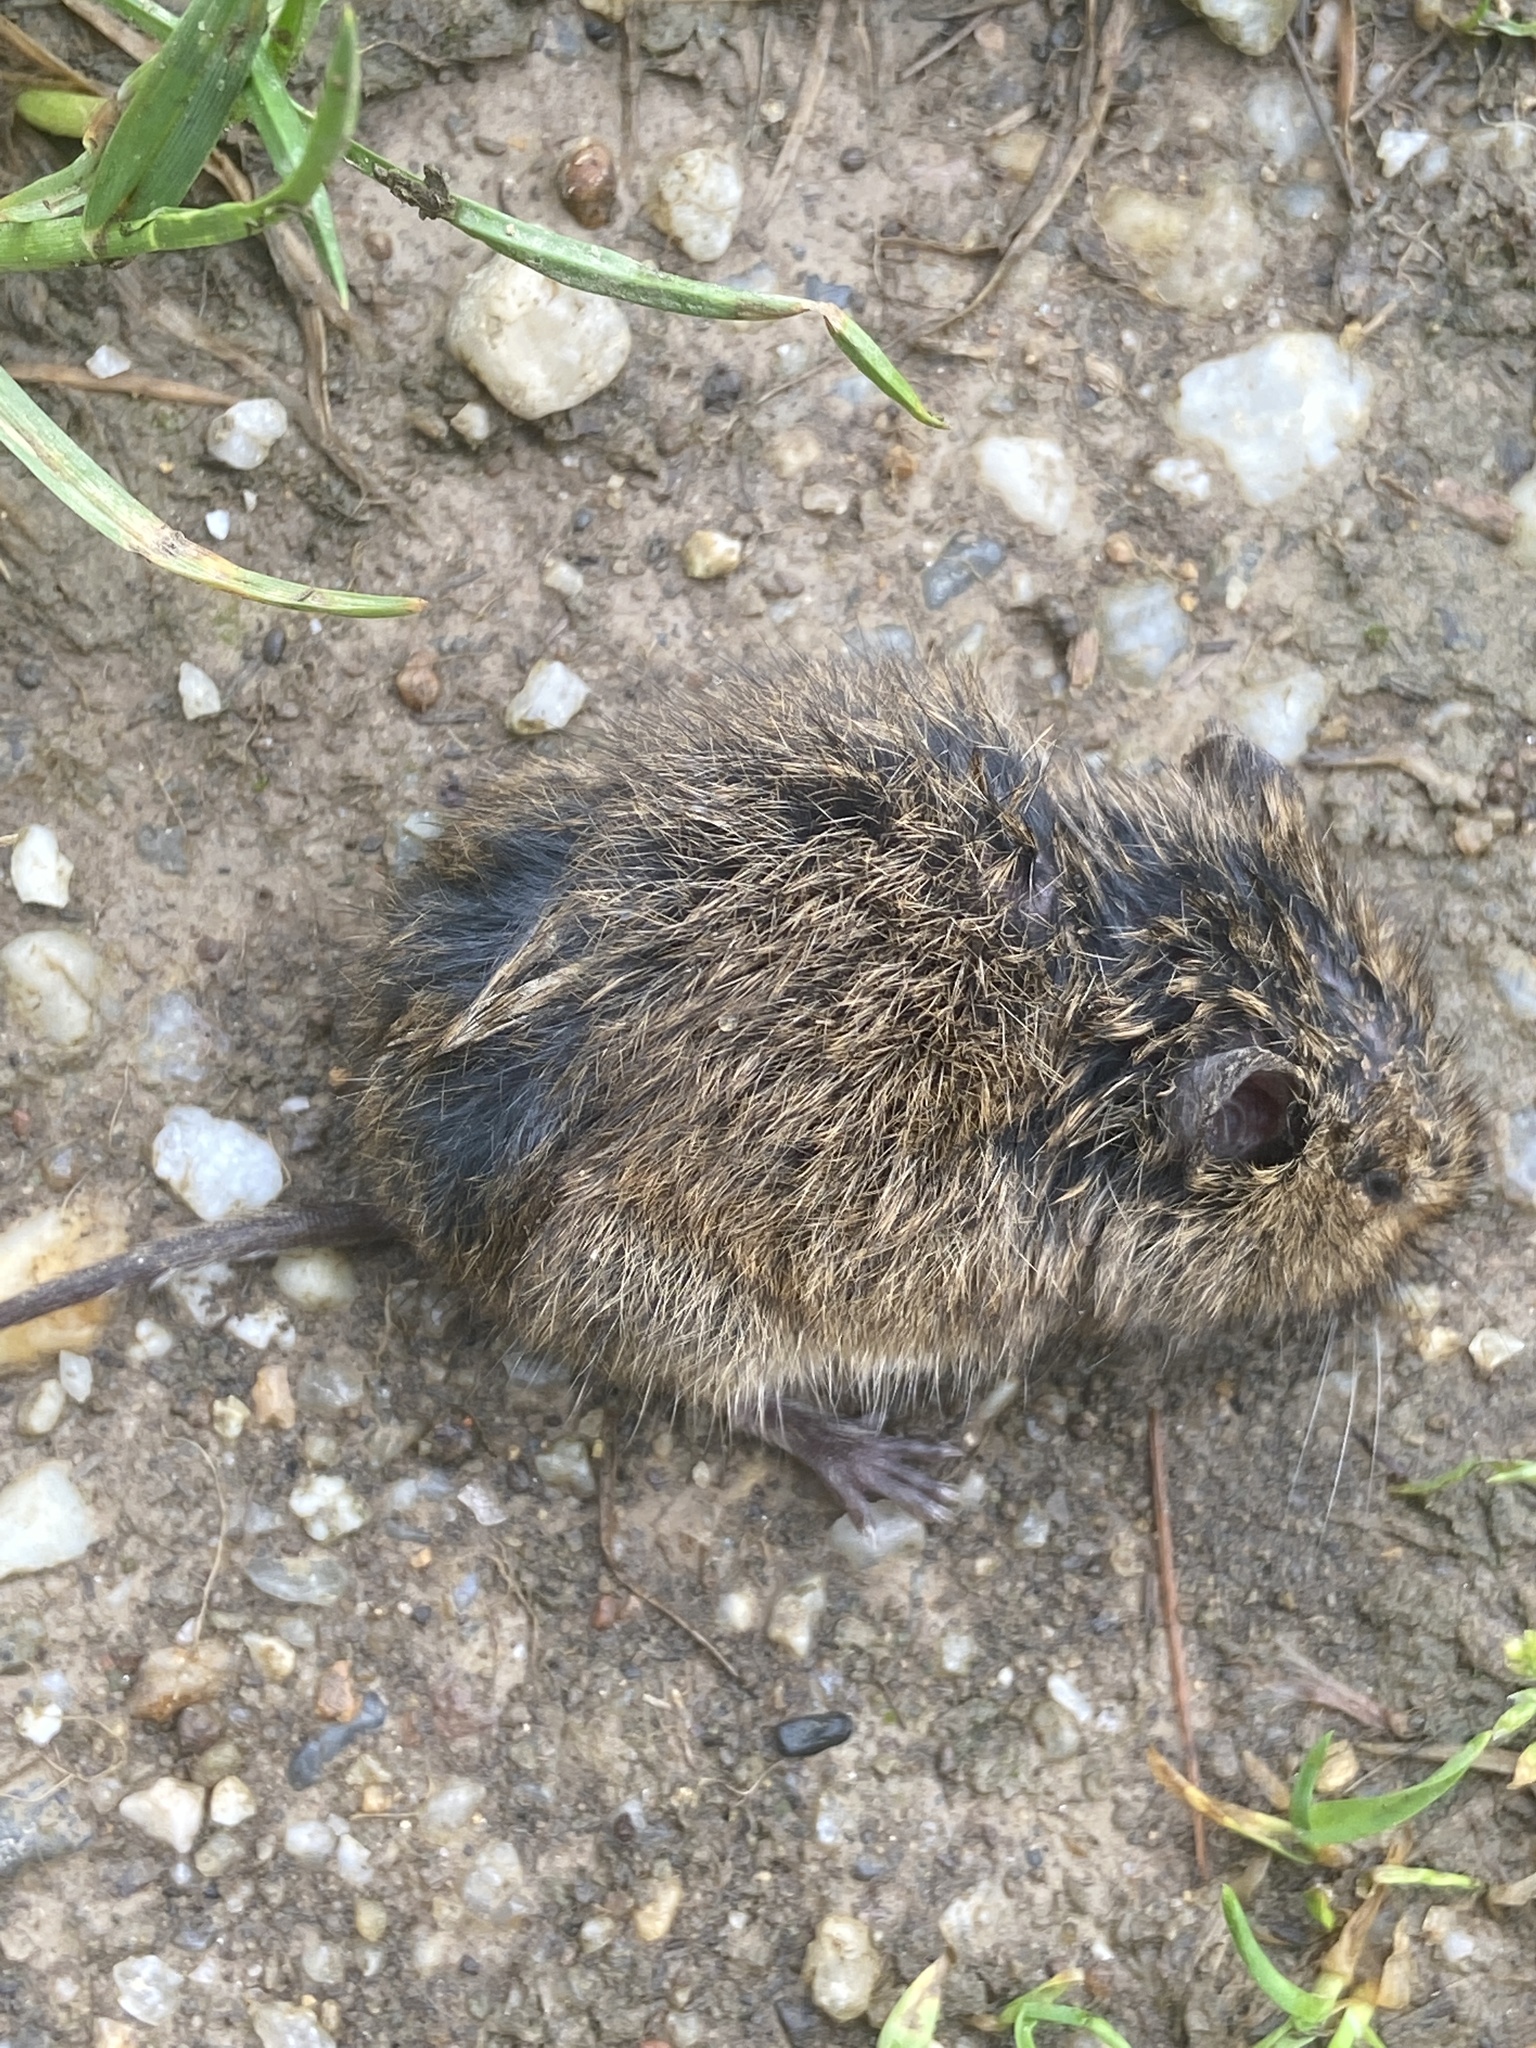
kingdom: Animalia
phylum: Chordata
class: Mammalia
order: Rodentia
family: Cricetidae
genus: Arvicola
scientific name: Arvicola amphibius
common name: European water vole
